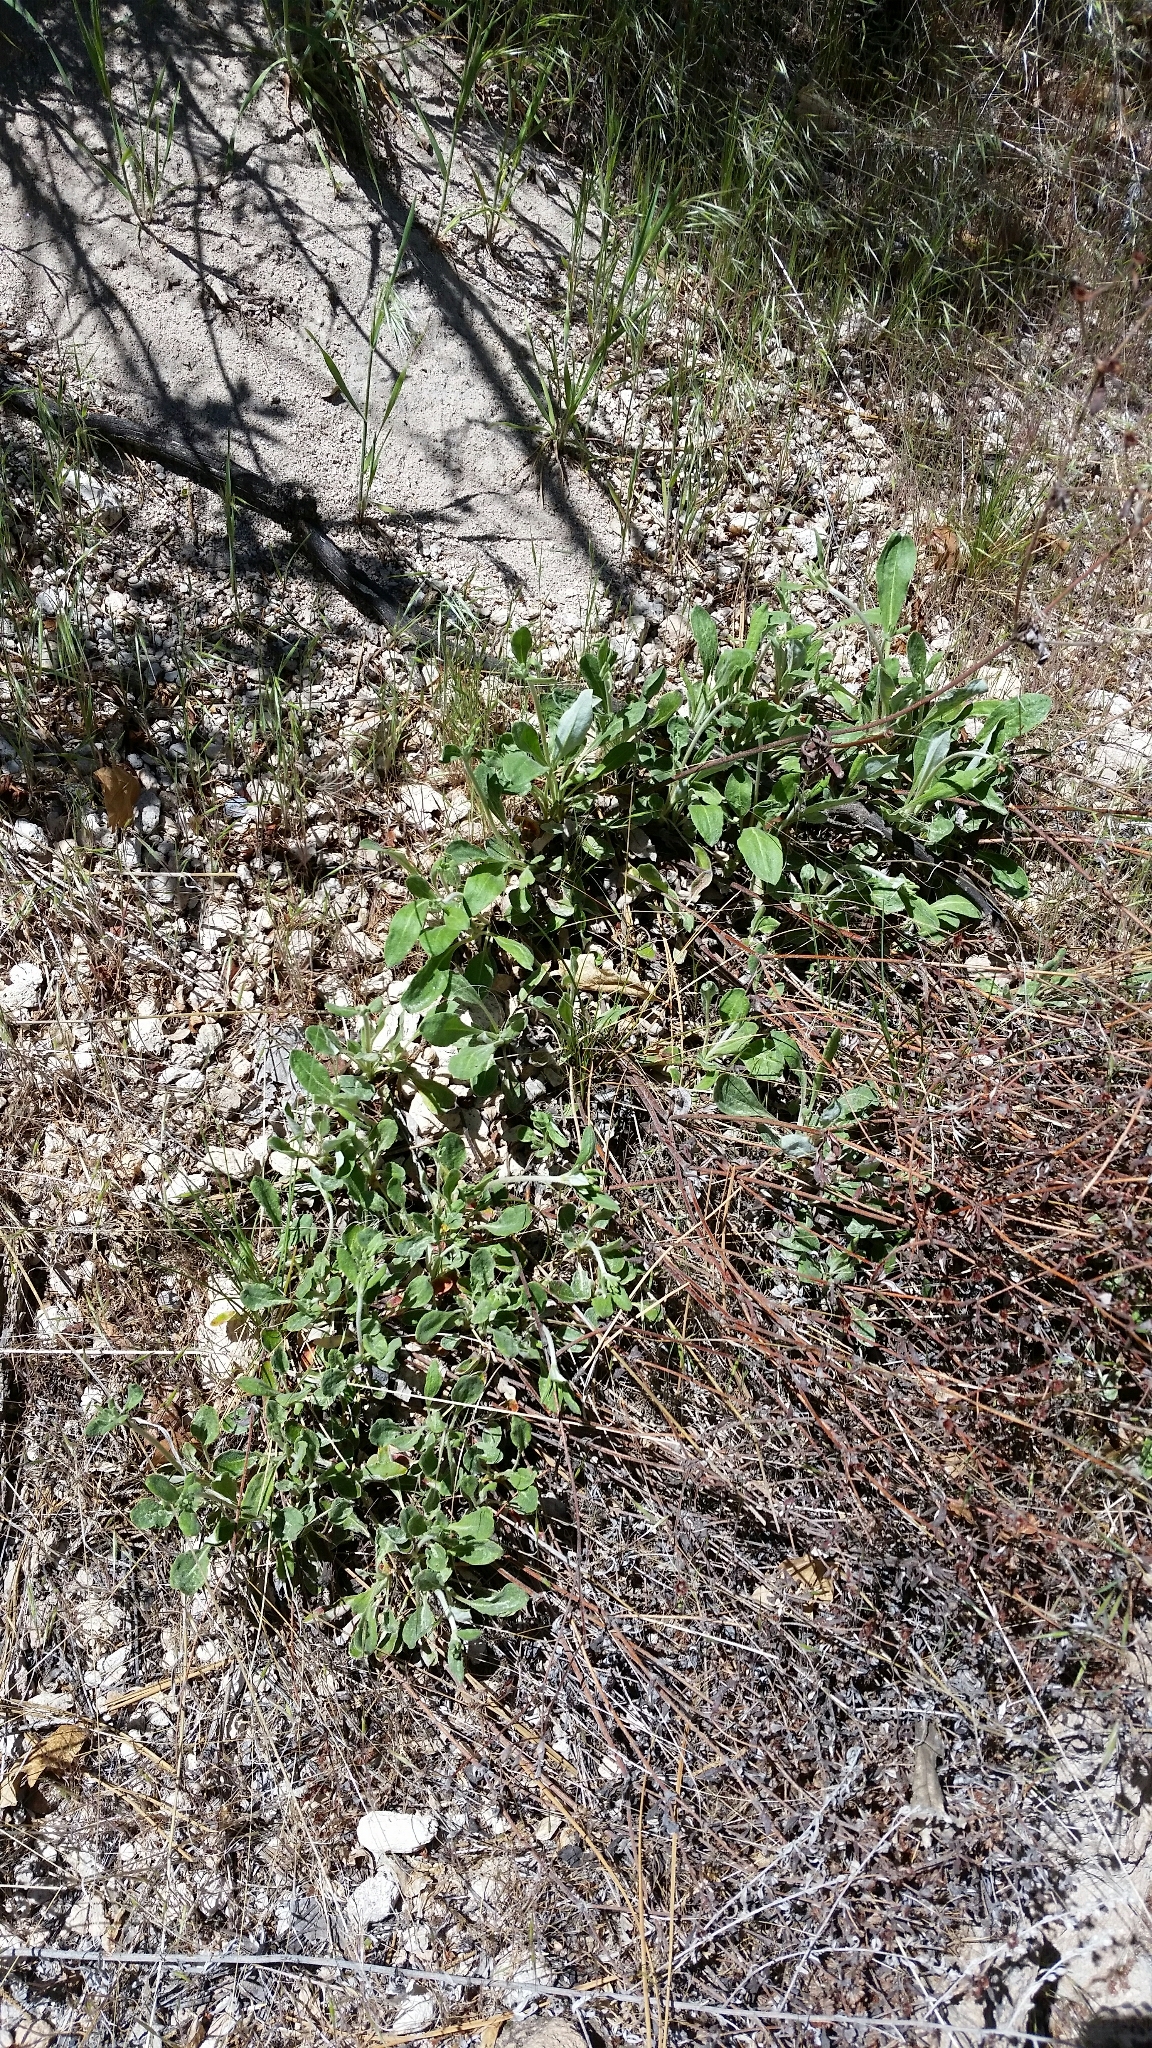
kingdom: Plantae
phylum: Tracheophyta
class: Magnoliopsida
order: Caryophyllales
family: Polygonaceae
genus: Eriogonum
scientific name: Eriogonum jamesii
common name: Antelope-sage
